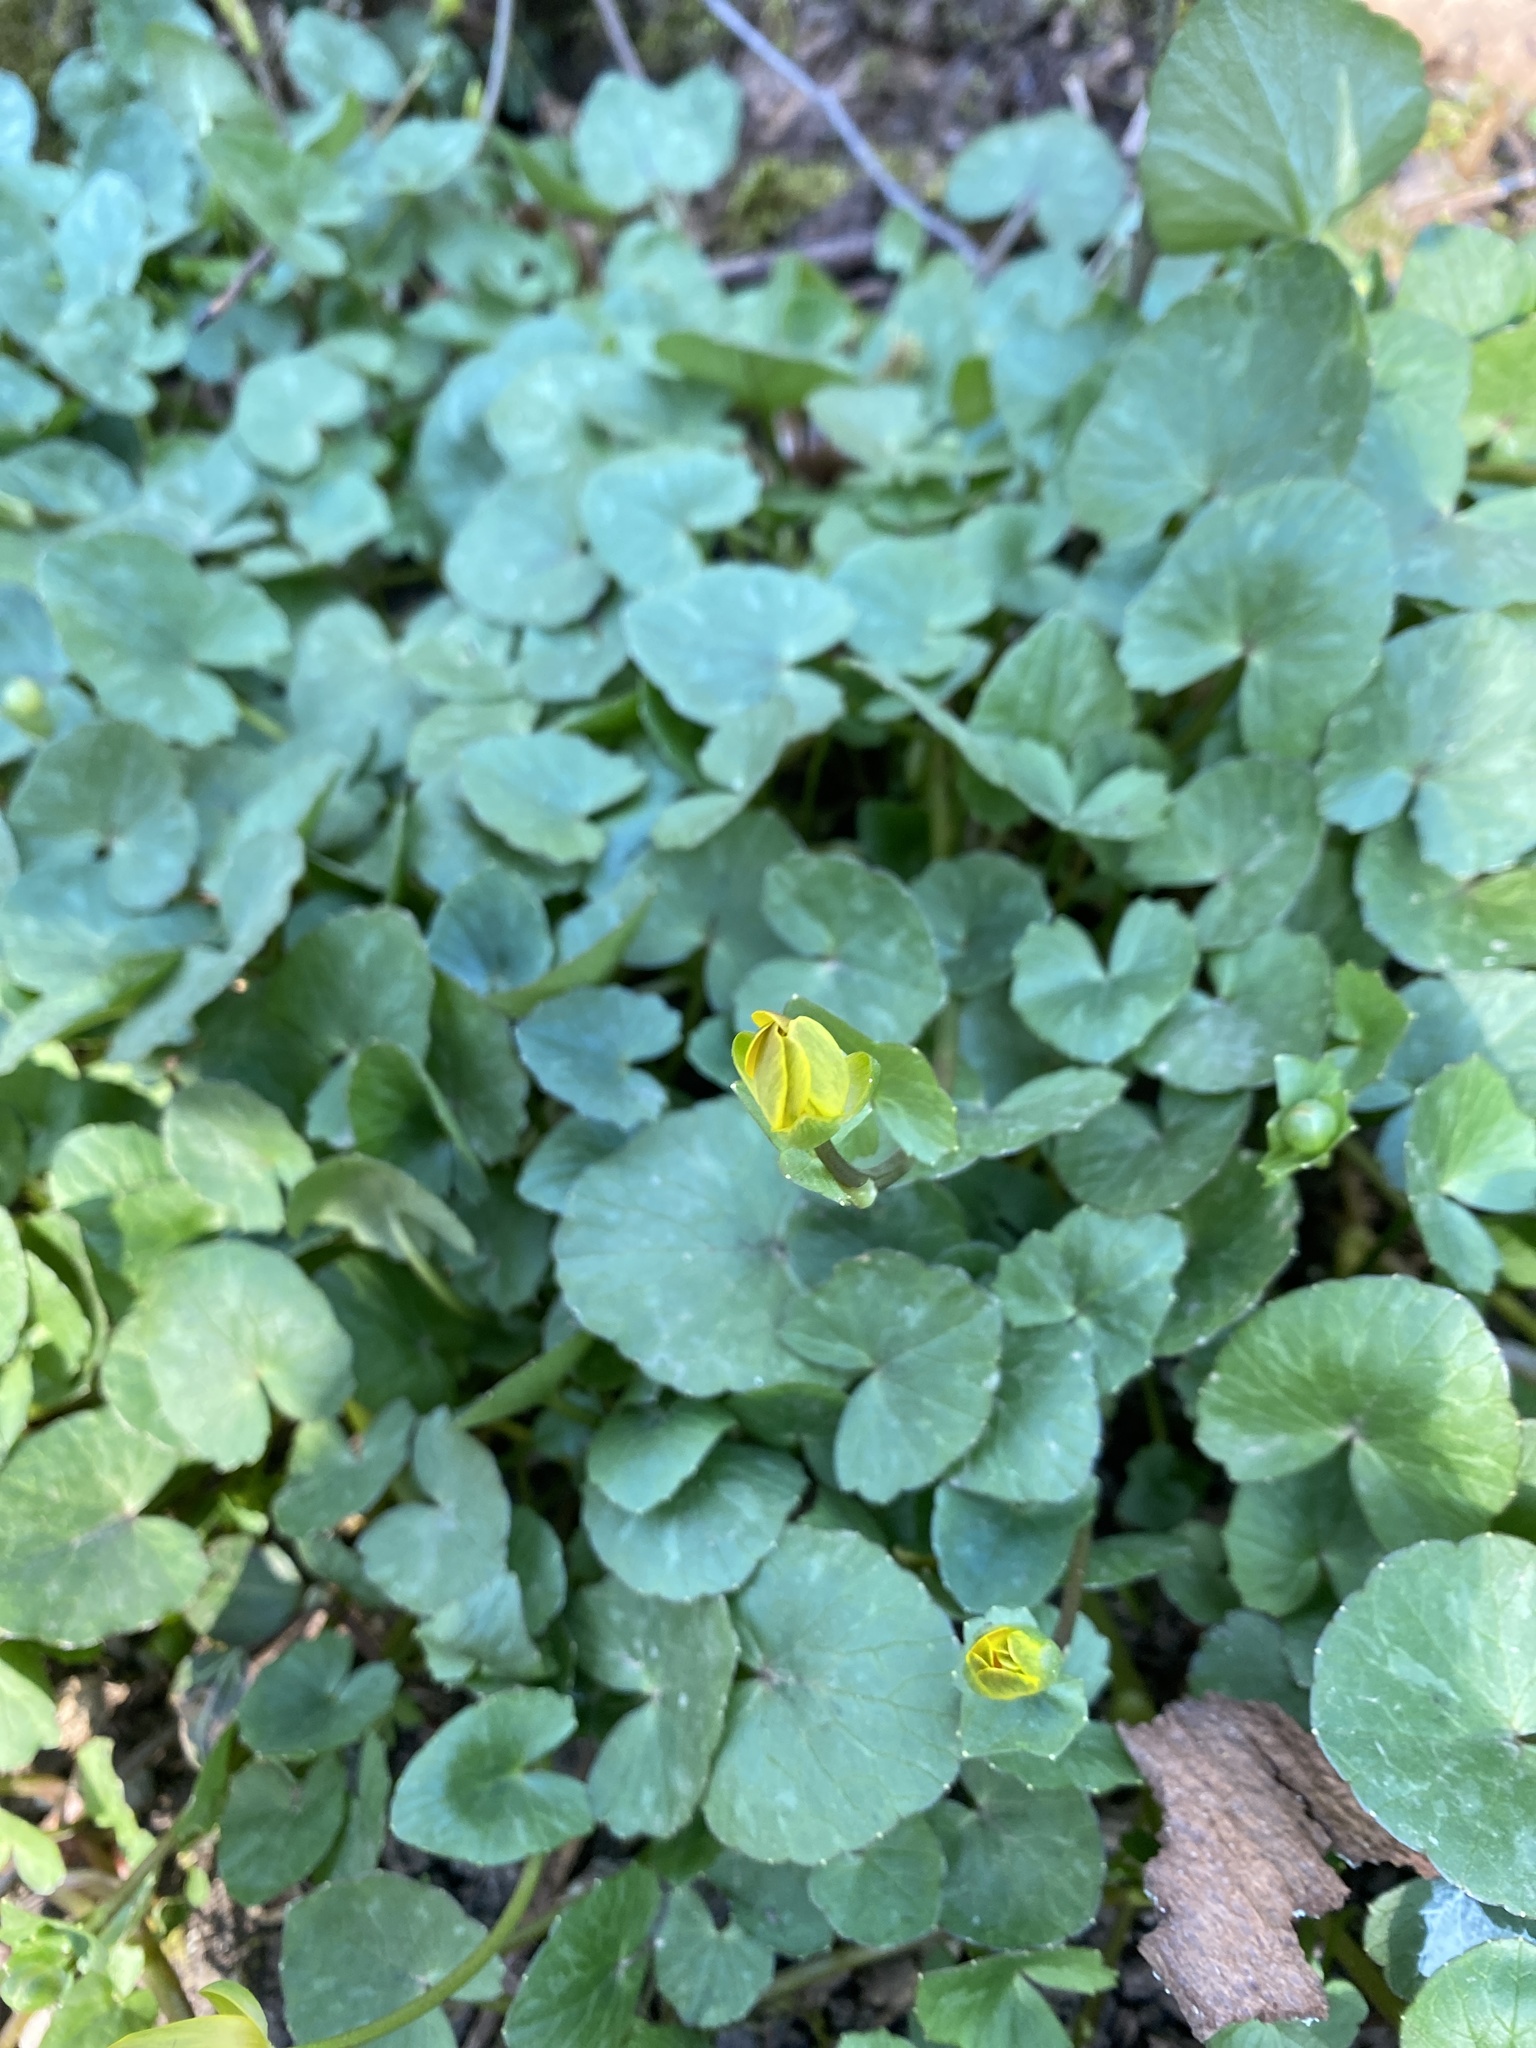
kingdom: Plantae
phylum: Tracheophyta
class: Magnoliopsida
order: Ranunculales
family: Ranunculaceae
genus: Ficaria
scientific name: Ficaria verna
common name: Lesser celandine
